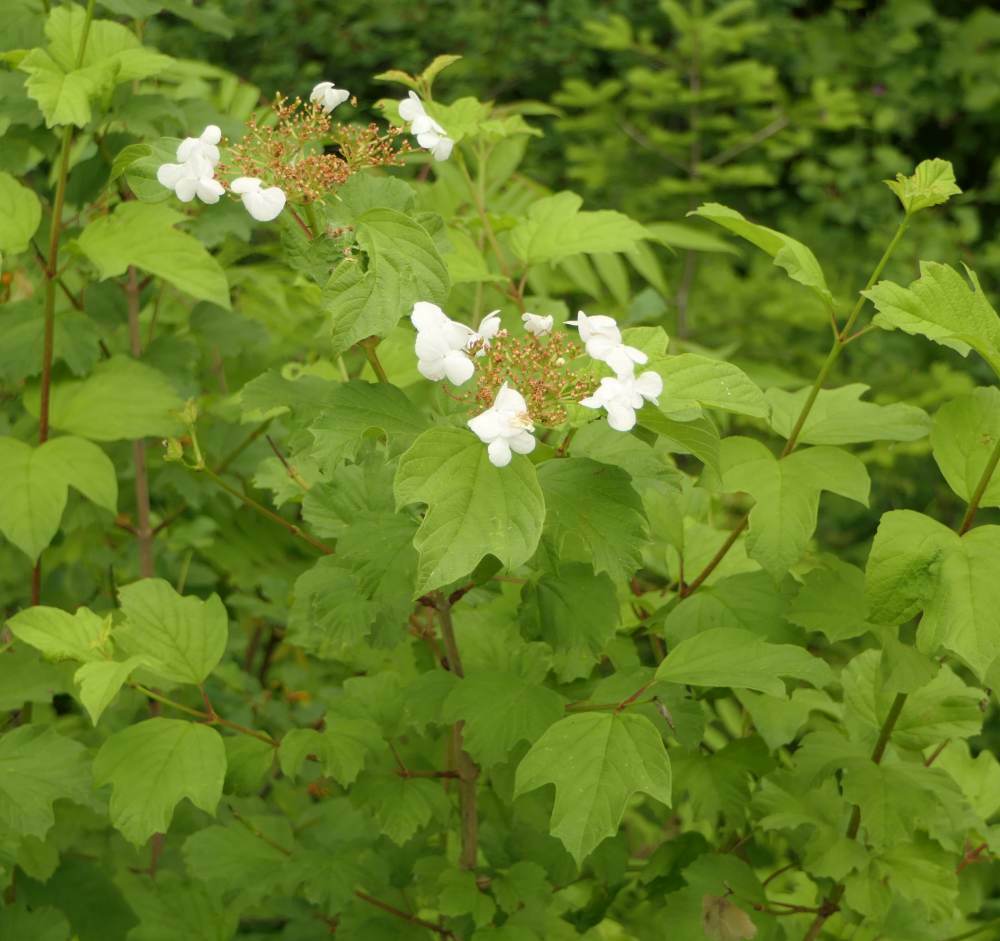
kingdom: Plantae
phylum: Tracheophyta
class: Magnoliopsida
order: Dipsacales
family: Viburnaceae
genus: Viburnum
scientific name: Viburnum opulus
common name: Guelder-rose
